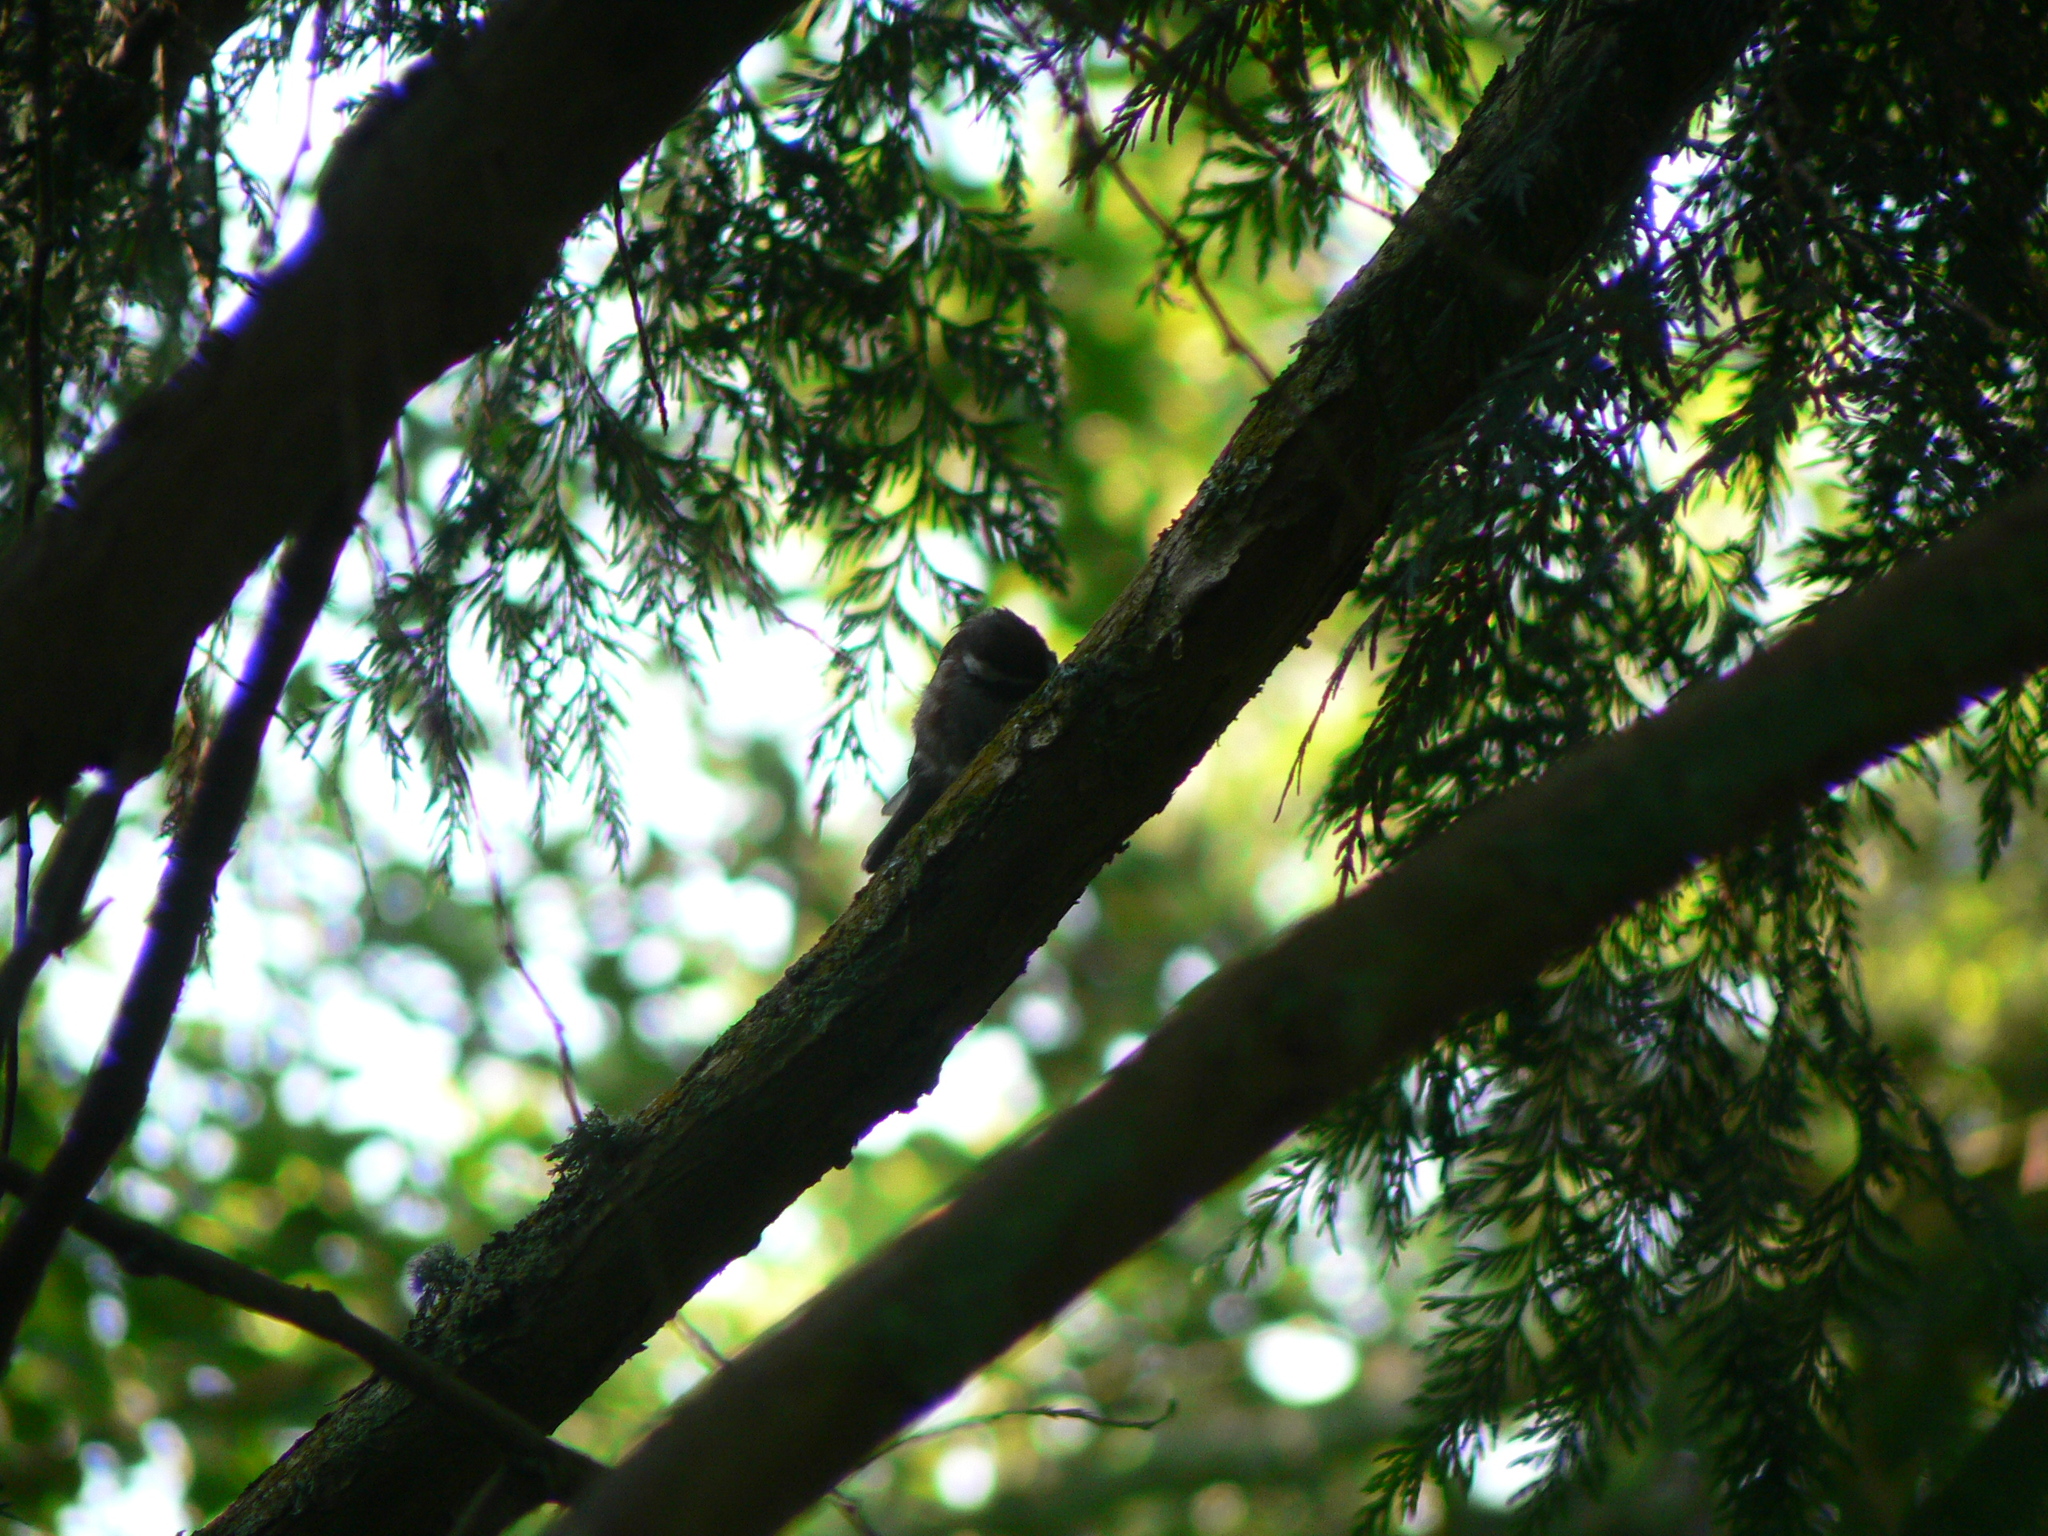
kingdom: Animalia
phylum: Chordata
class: Aves
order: Passeriformes
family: Paridae
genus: Poecile
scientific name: Poecile rufescens
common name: Chestnut-backed chickadee
